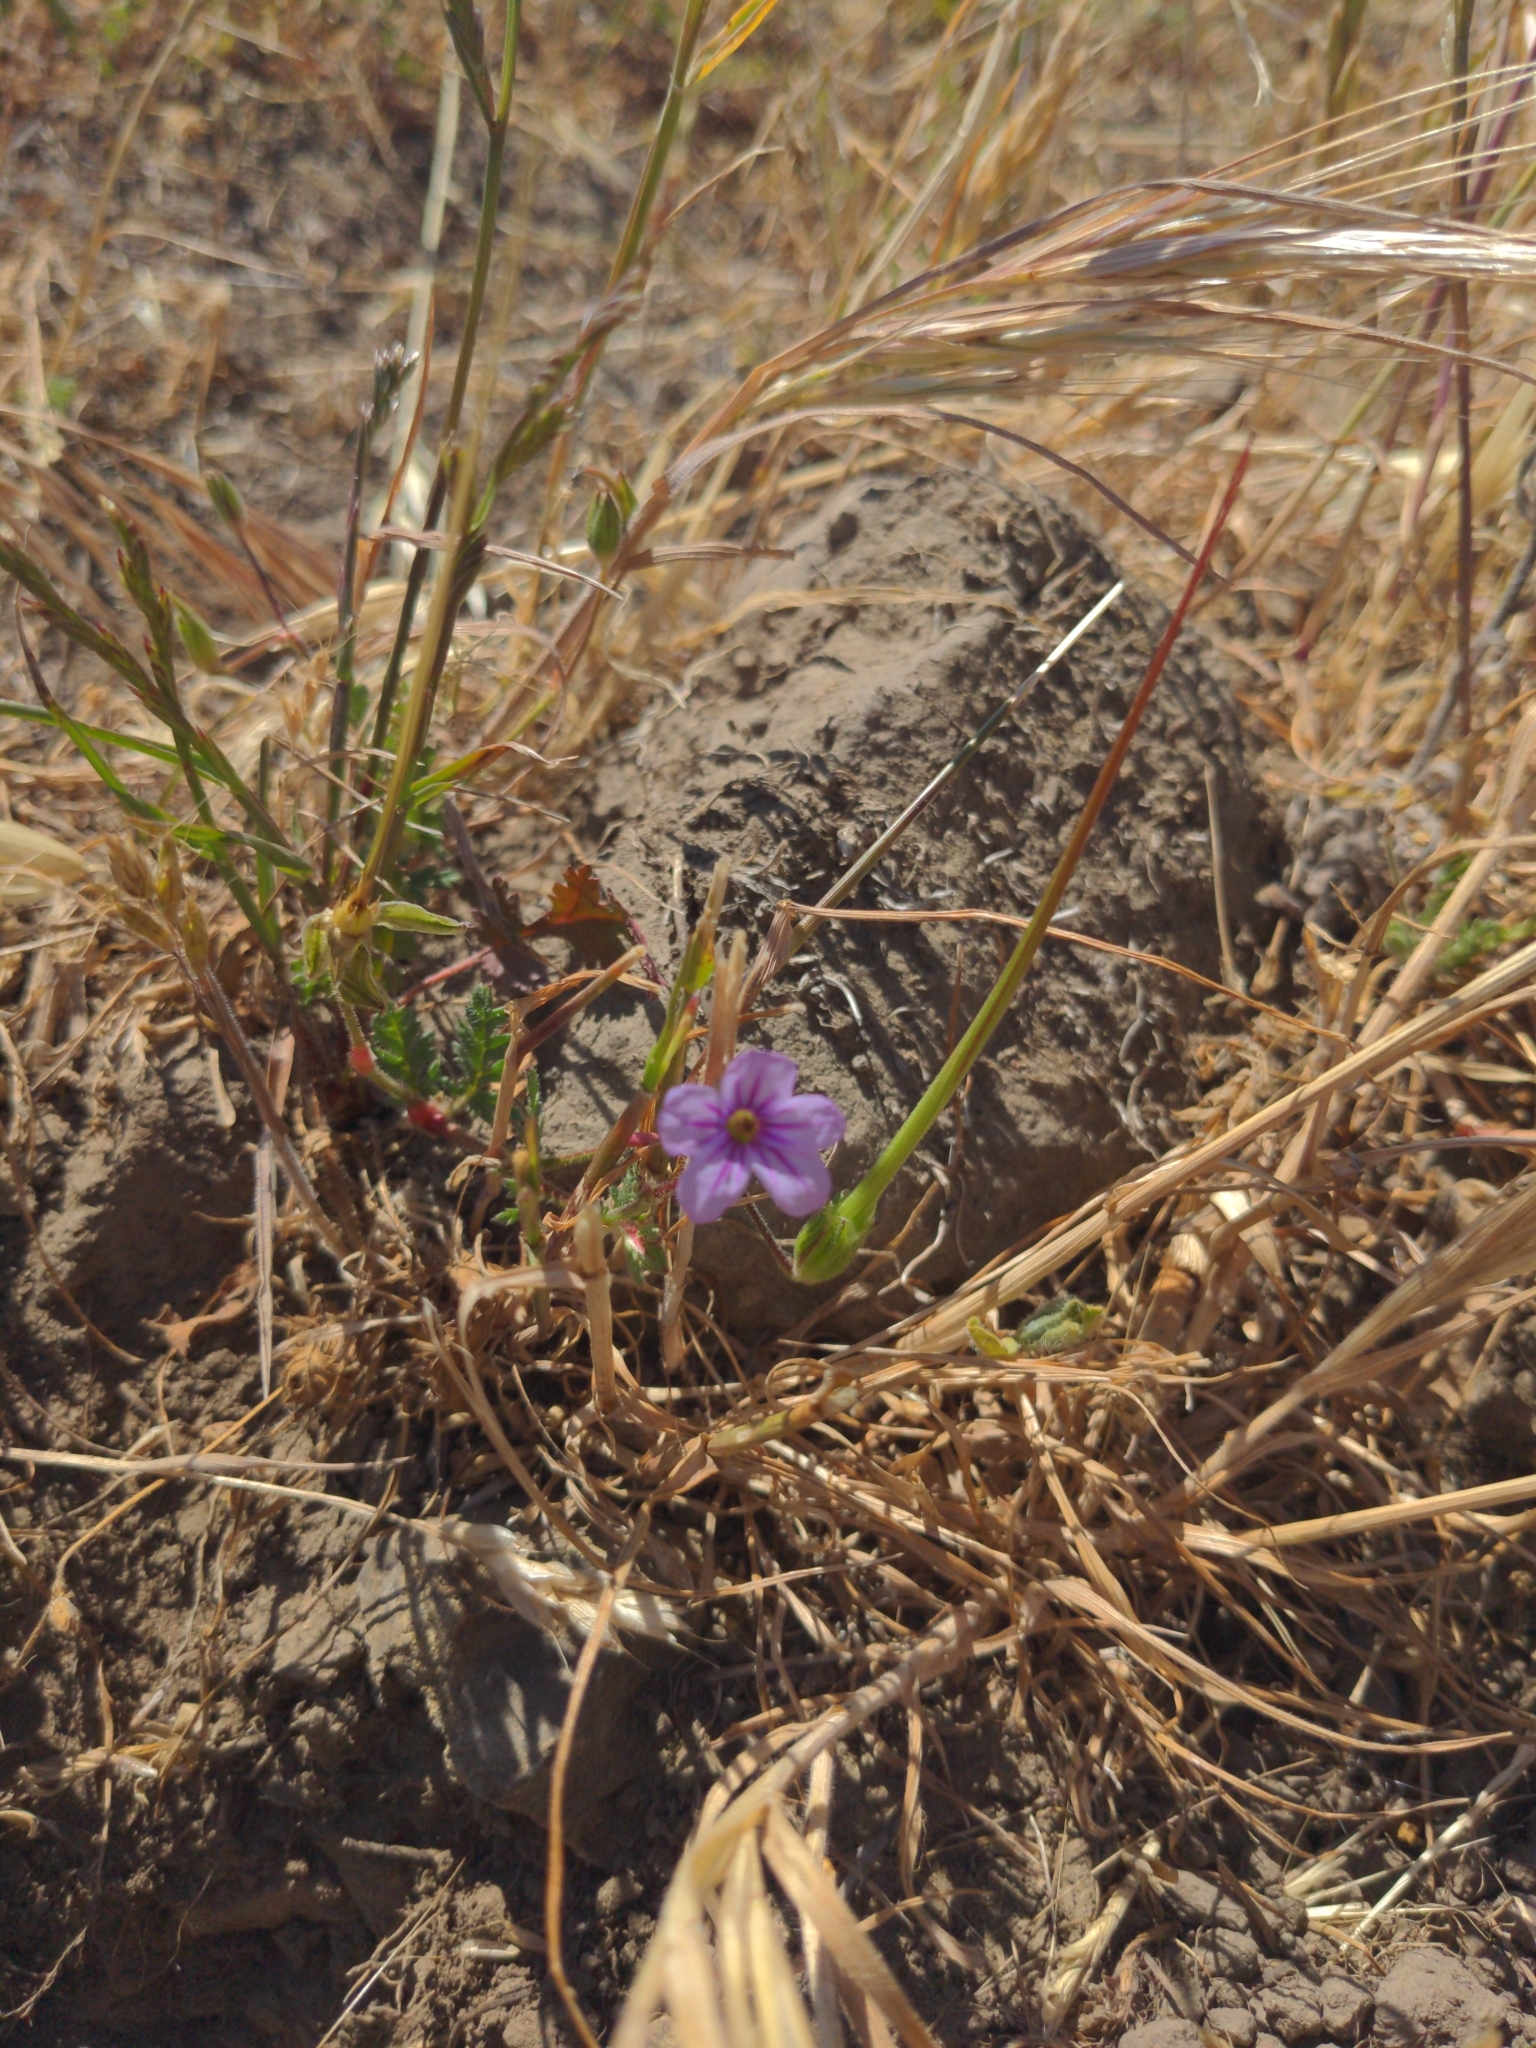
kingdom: Plantae
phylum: Tracheophyta
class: Magnoliopsida
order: Geraniales
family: Geraniaceae
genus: Erodium
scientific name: Erodium botrys
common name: Mediterranean stork's-bill
